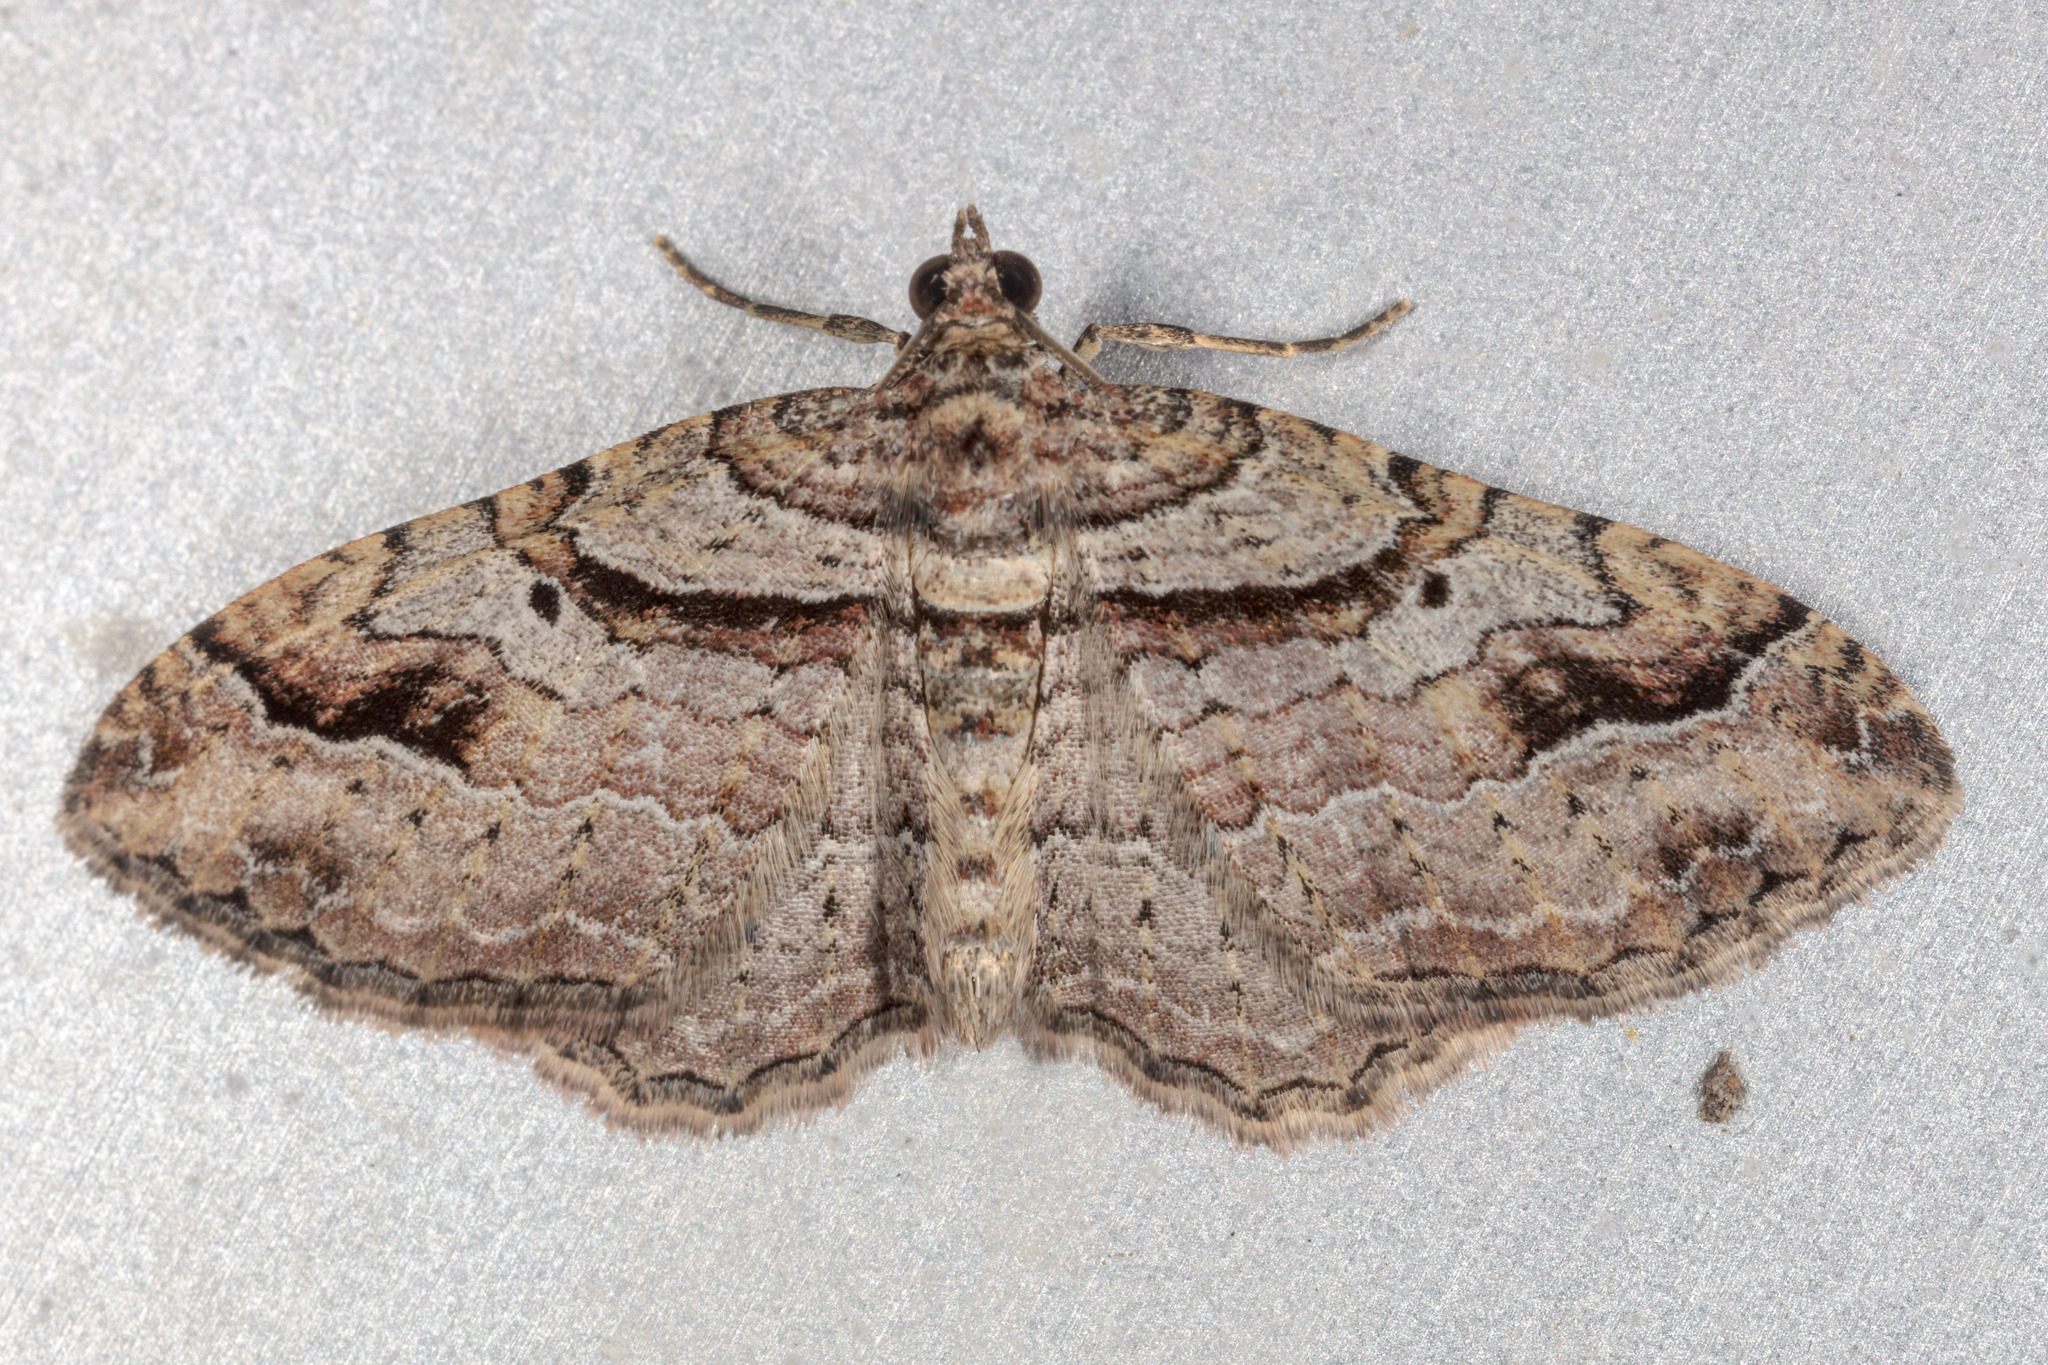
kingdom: Animalia
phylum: Arthropoda
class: Insecta
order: Lepidoptera
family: Geometridae
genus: Costaconvexa
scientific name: Costaconvexa centrostrigaria
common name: Bent-line carpet
